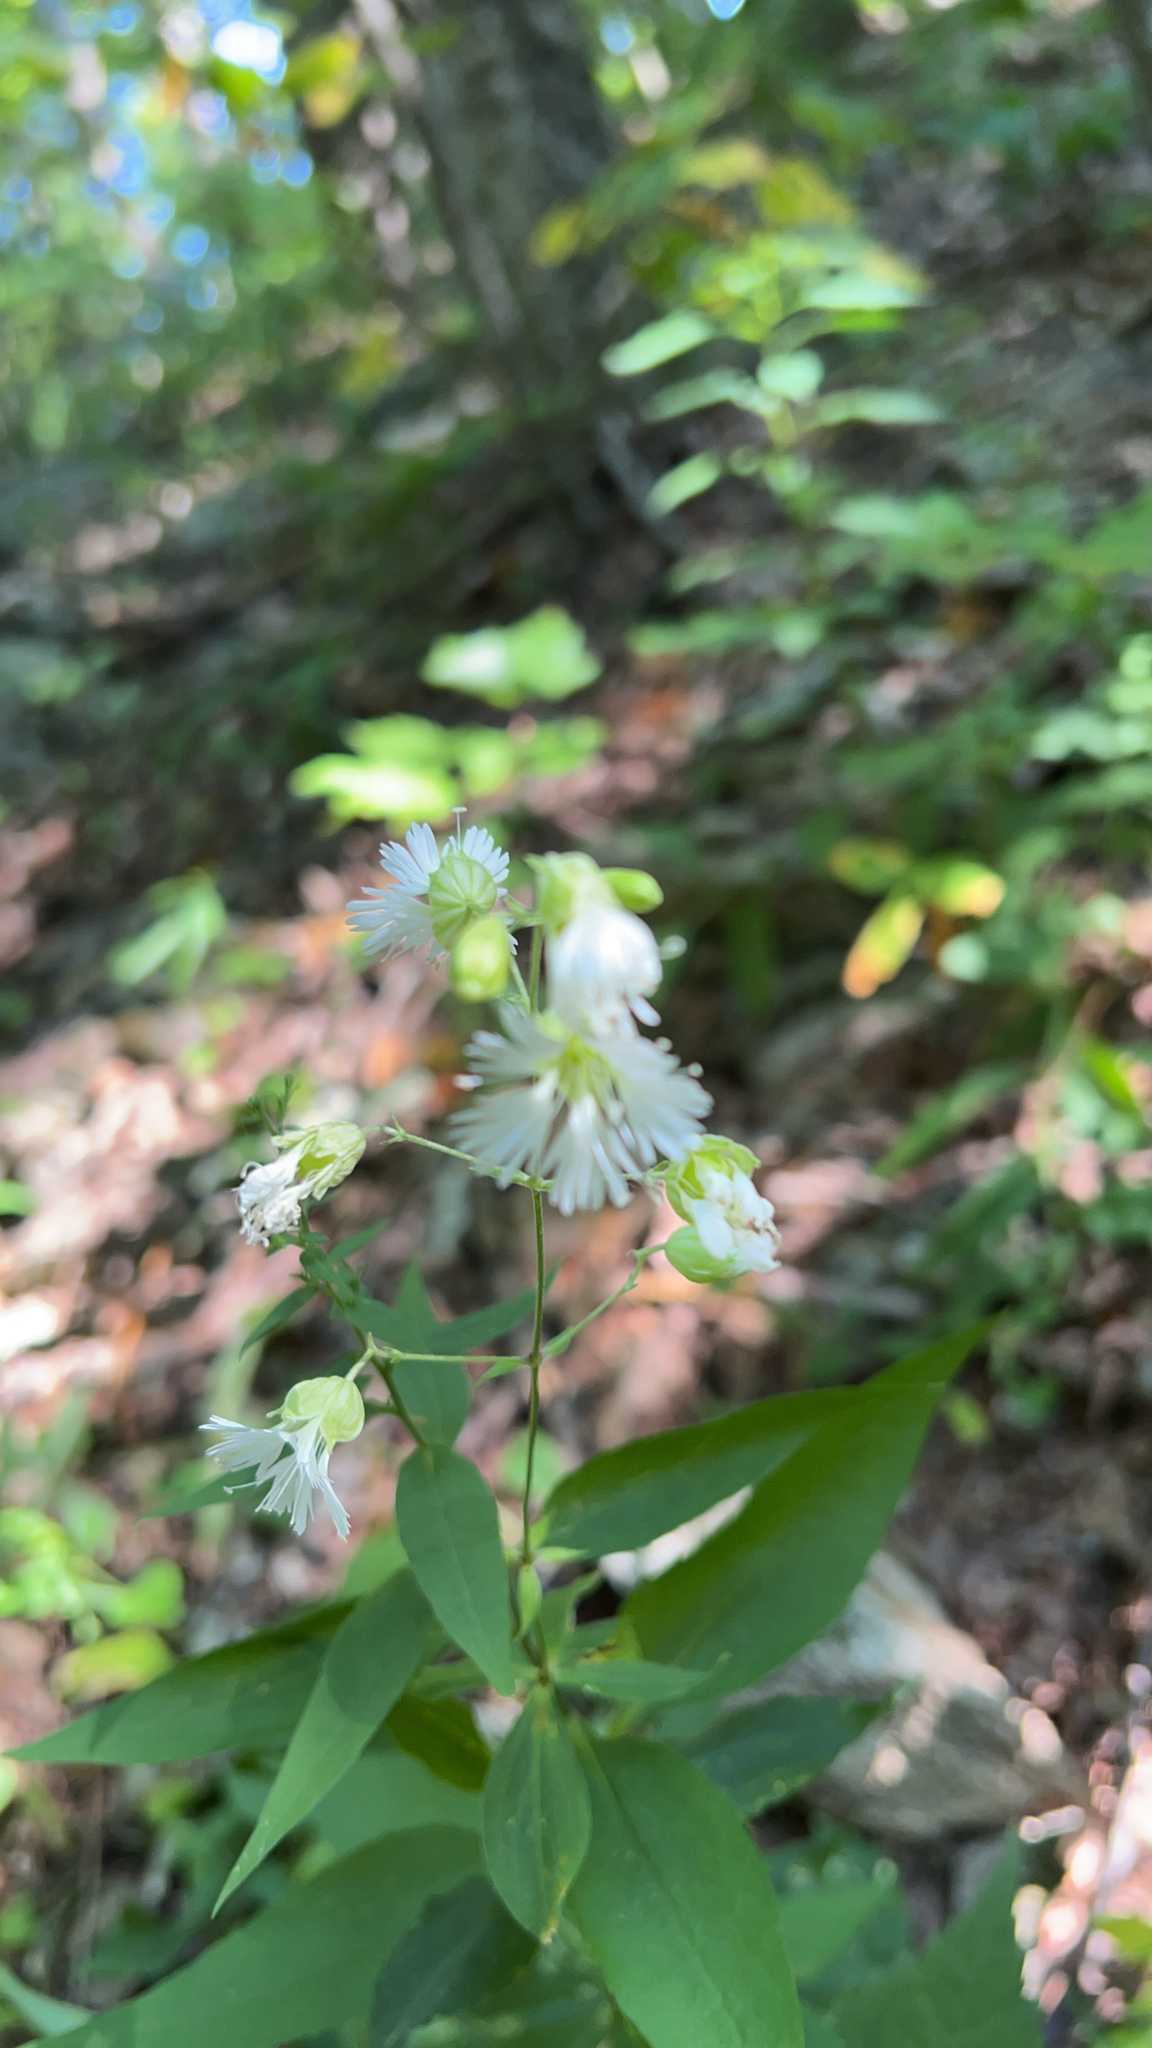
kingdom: Plantae
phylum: Tracheophyta
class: Magnoliopsida
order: Caryophyllales
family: Caryophyllaceae
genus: Silene
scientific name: Silene stellata
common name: Starry campion
